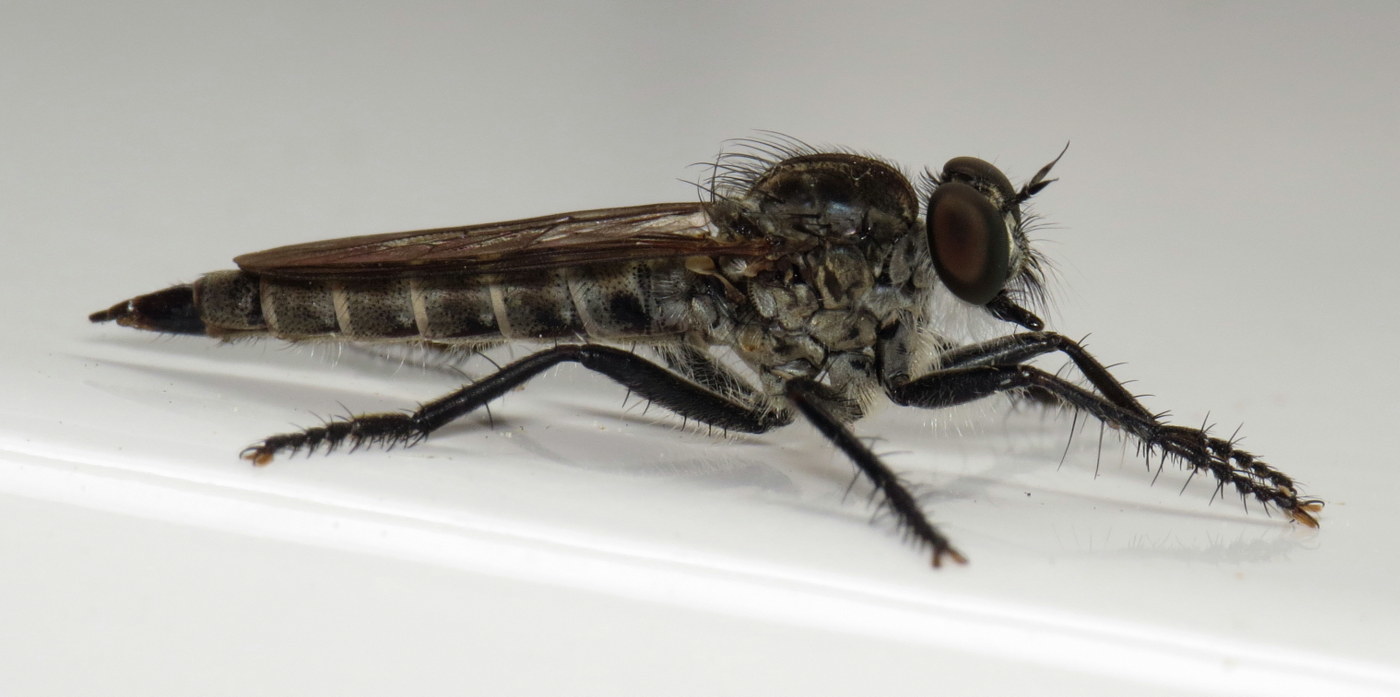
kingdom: Animalia
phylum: Arthropoda
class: Insecta
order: Diptera
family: Asilidae
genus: Machimus
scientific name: Machimus maneei
